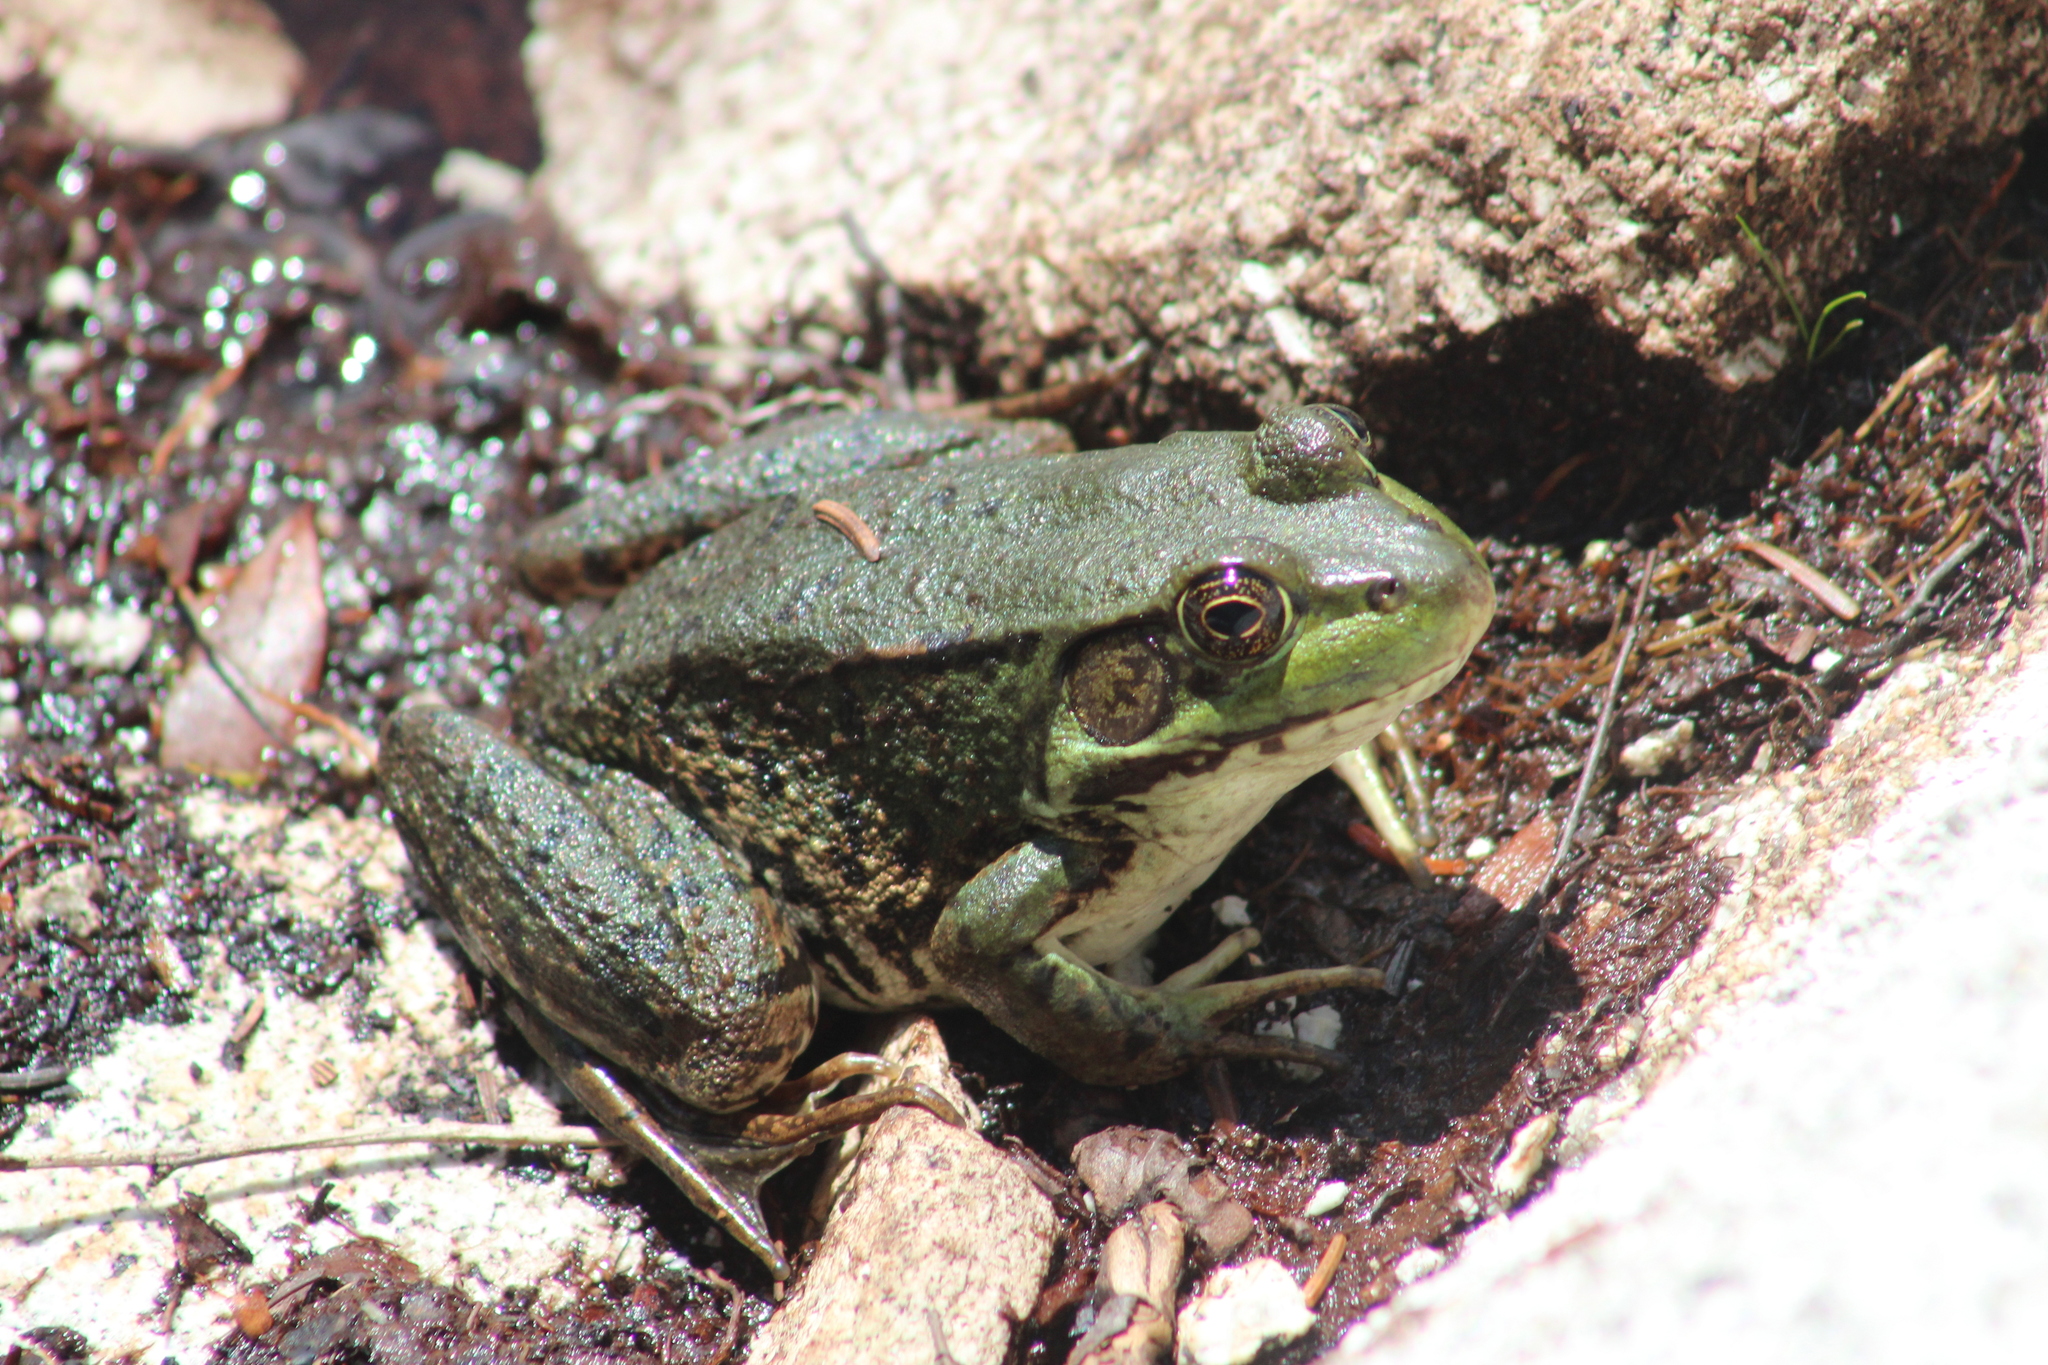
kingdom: Animalia
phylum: Chordata
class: Amphibia
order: Anura
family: Ranidae
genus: Lithobates
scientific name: Lithobates clamitans
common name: Green frog
